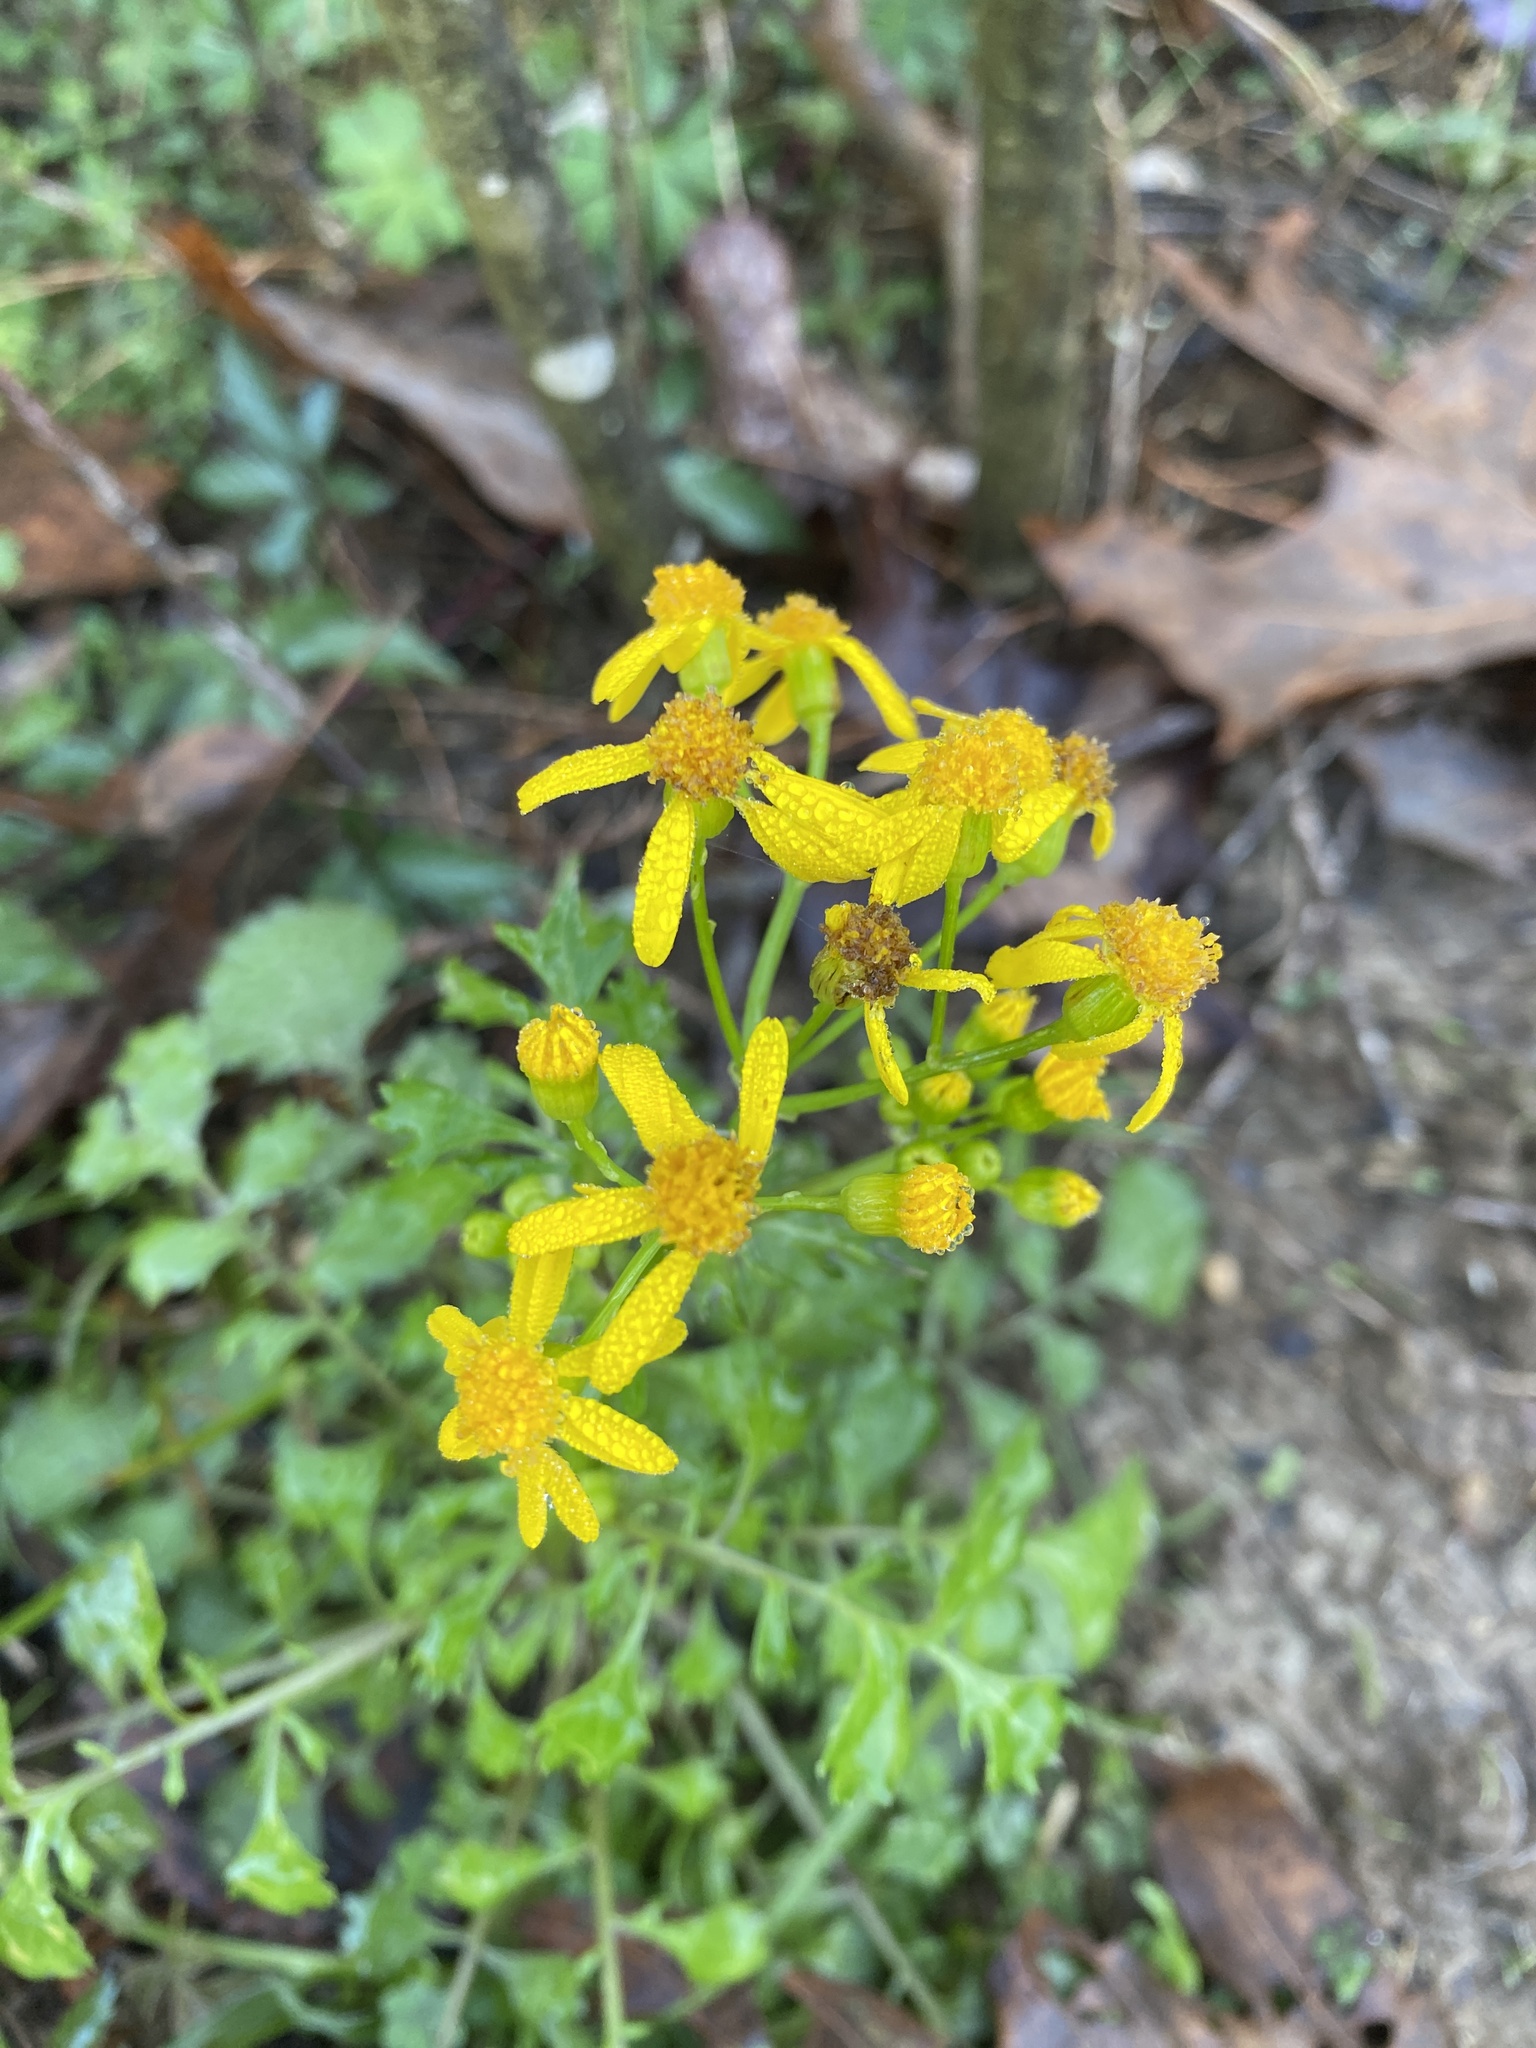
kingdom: Plantae
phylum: Tracheophyta
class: Magnoliopsida
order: Asterales
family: Asteraceae
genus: Packera
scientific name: Packera glabella
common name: Butterweed
